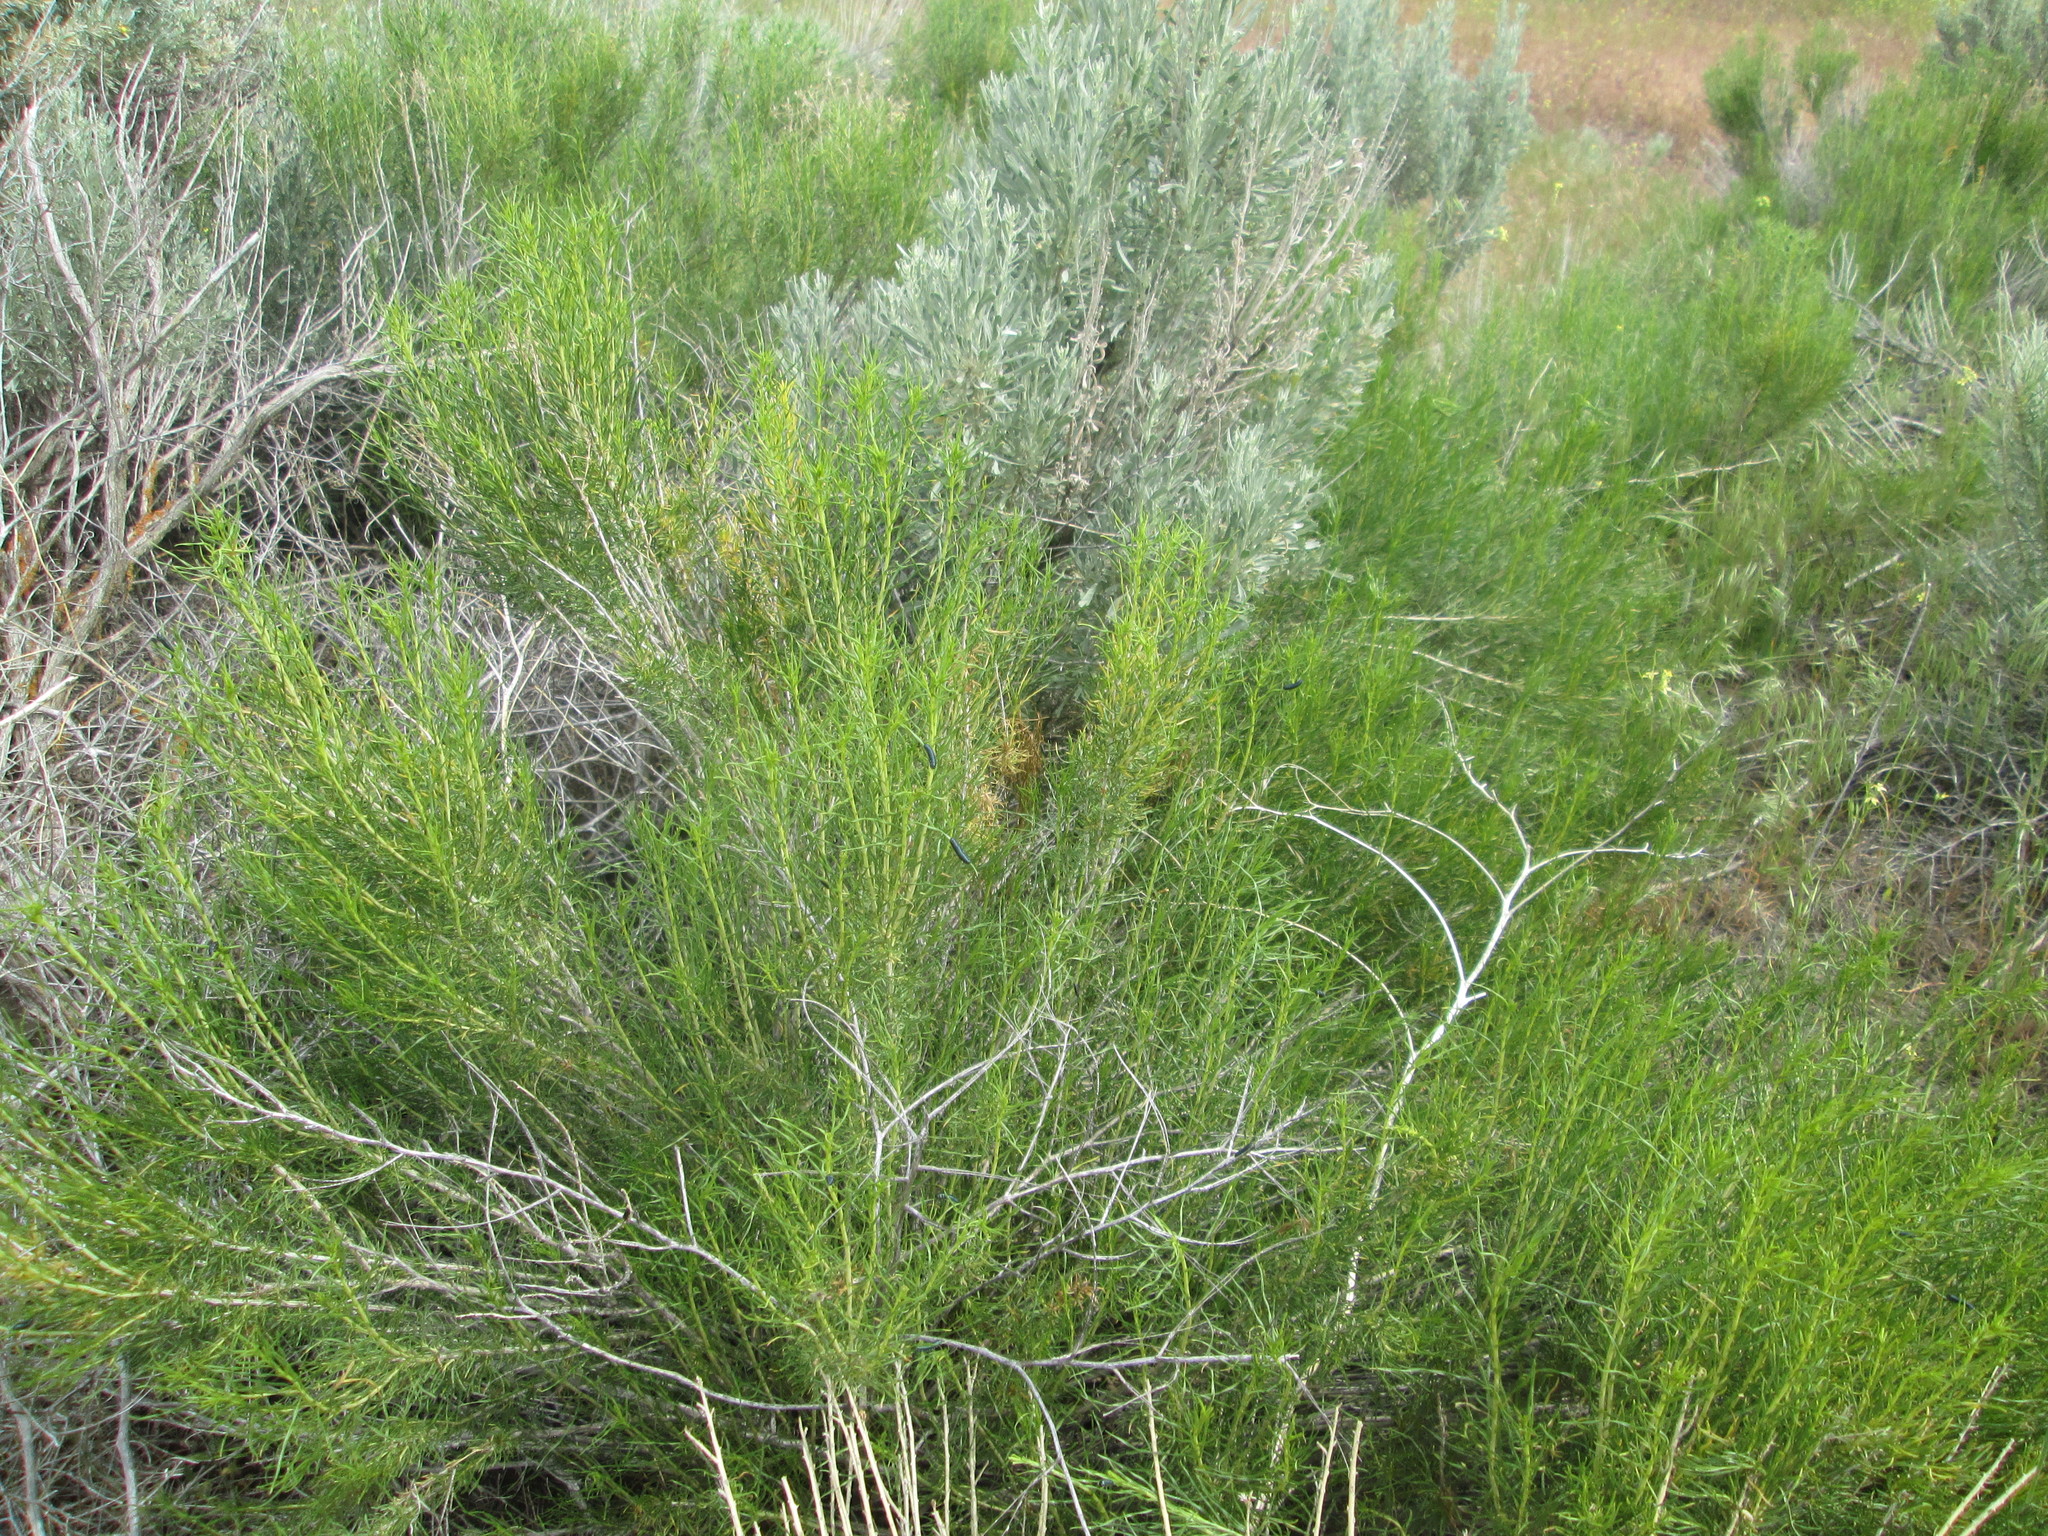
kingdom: Plantae
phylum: Tracheophyta
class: Magnoliopsida
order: Asterales
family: Asteraceae
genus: Chrysothamnus
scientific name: Chrysothamnus viscidiflorus
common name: Yellow rabbitbrush
